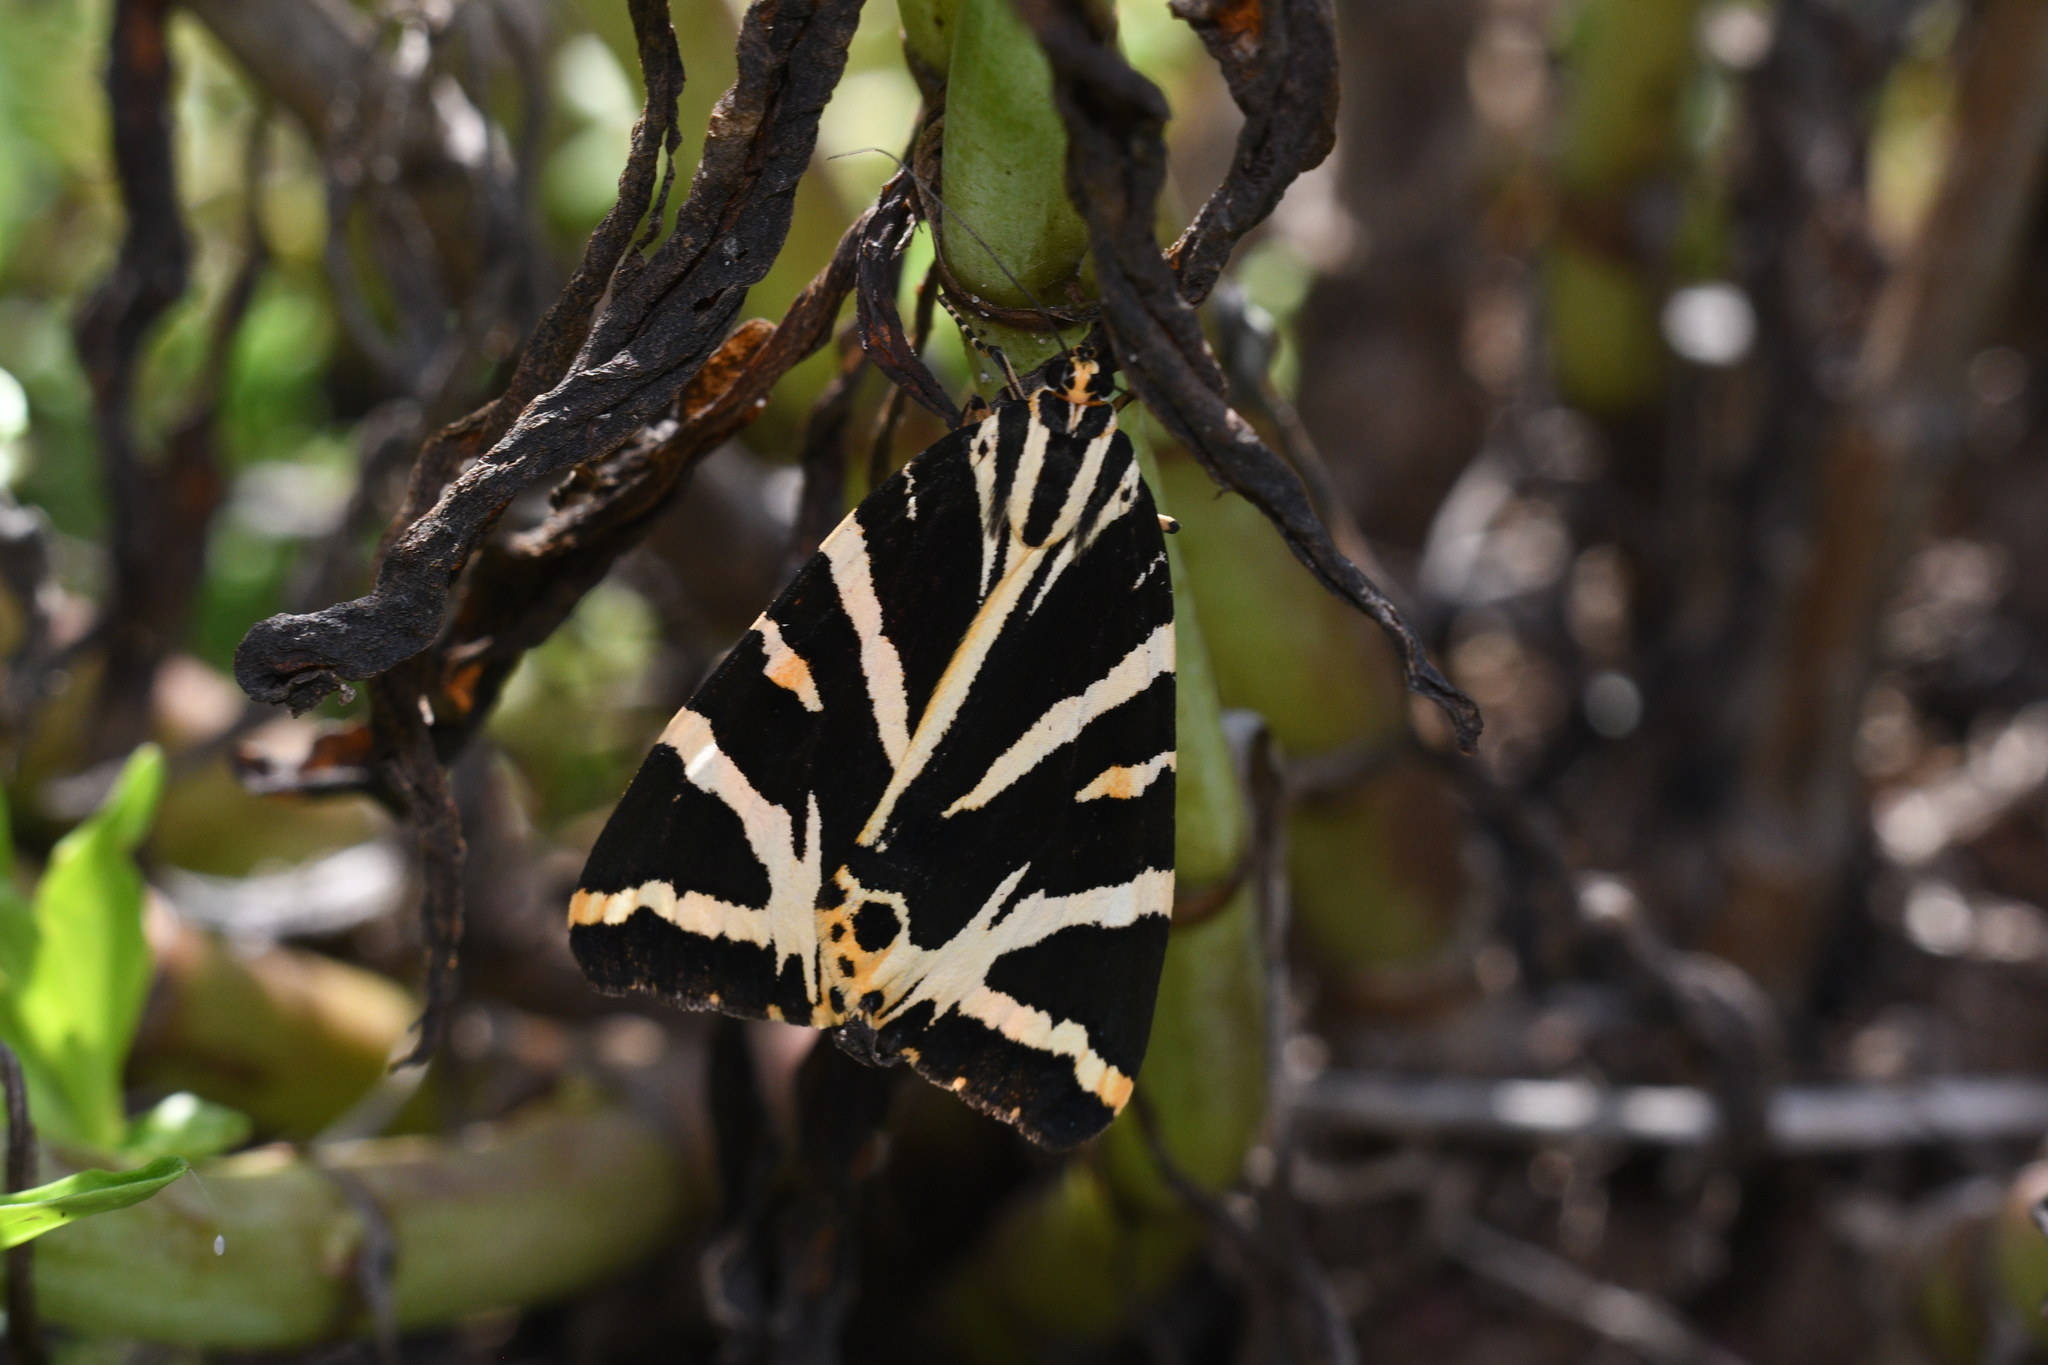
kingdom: Animalia
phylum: Arthropoda
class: Insecta
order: Lepidoptera
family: Erebidae
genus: Euplagia
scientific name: Euplagia quadripunctaria
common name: Jersey tiger
